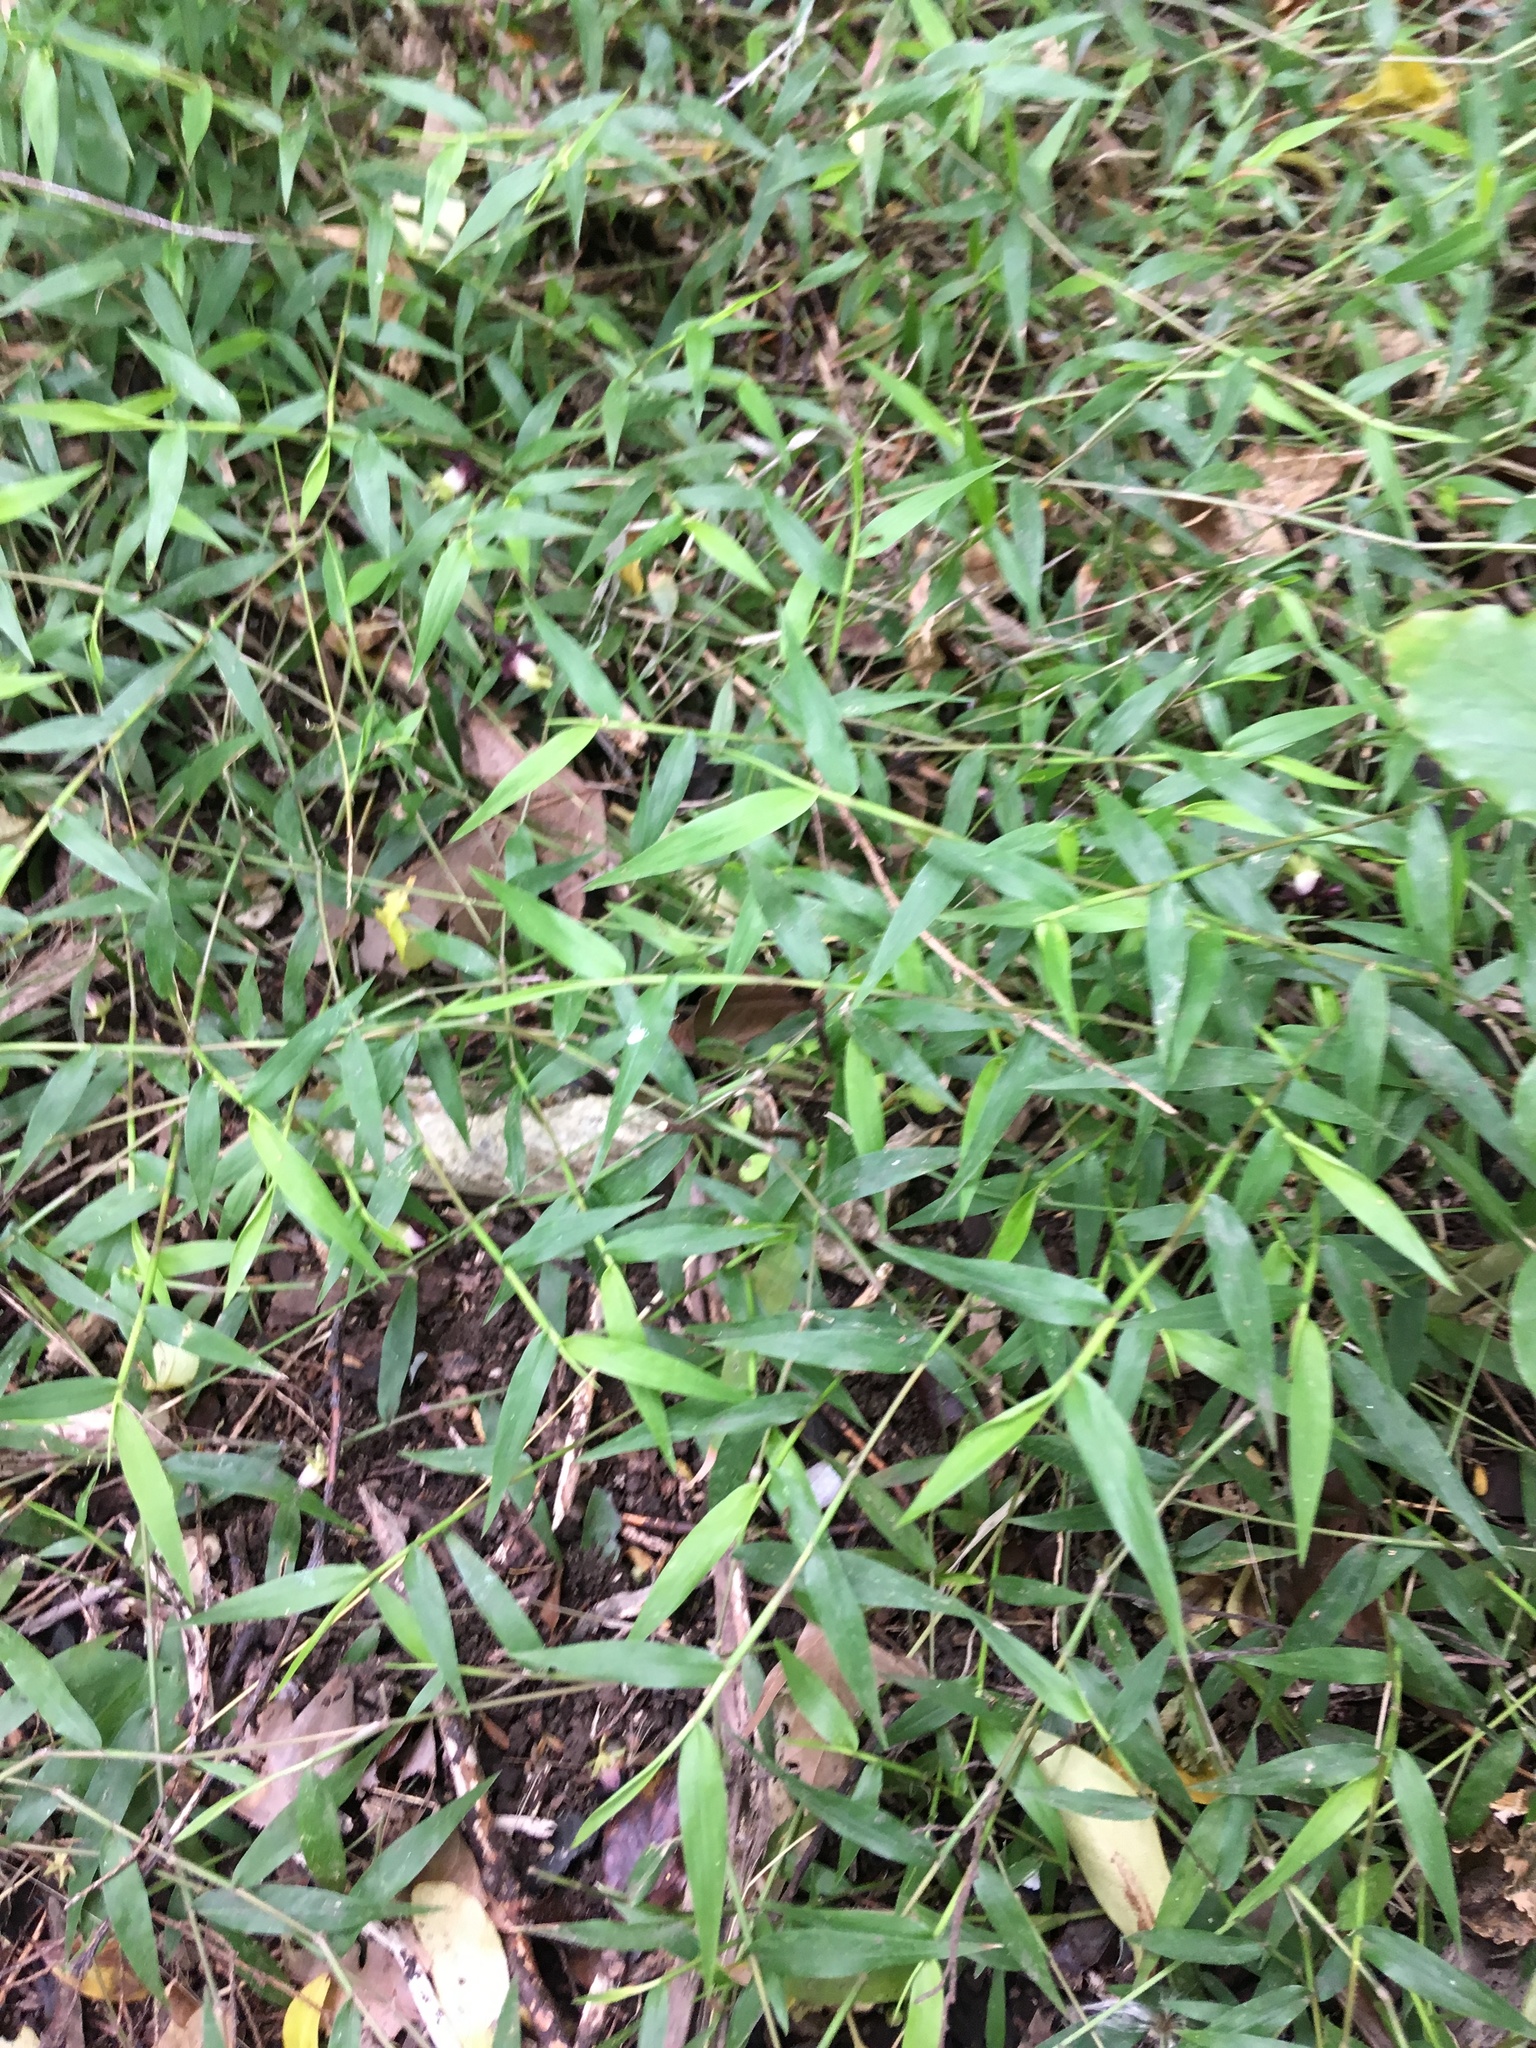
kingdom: Plantae
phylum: Tracheophyta
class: Liliopsida
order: Poales
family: Poaceae
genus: Oplismenus
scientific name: Oplismenus hirtellus
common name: Basketgrass
